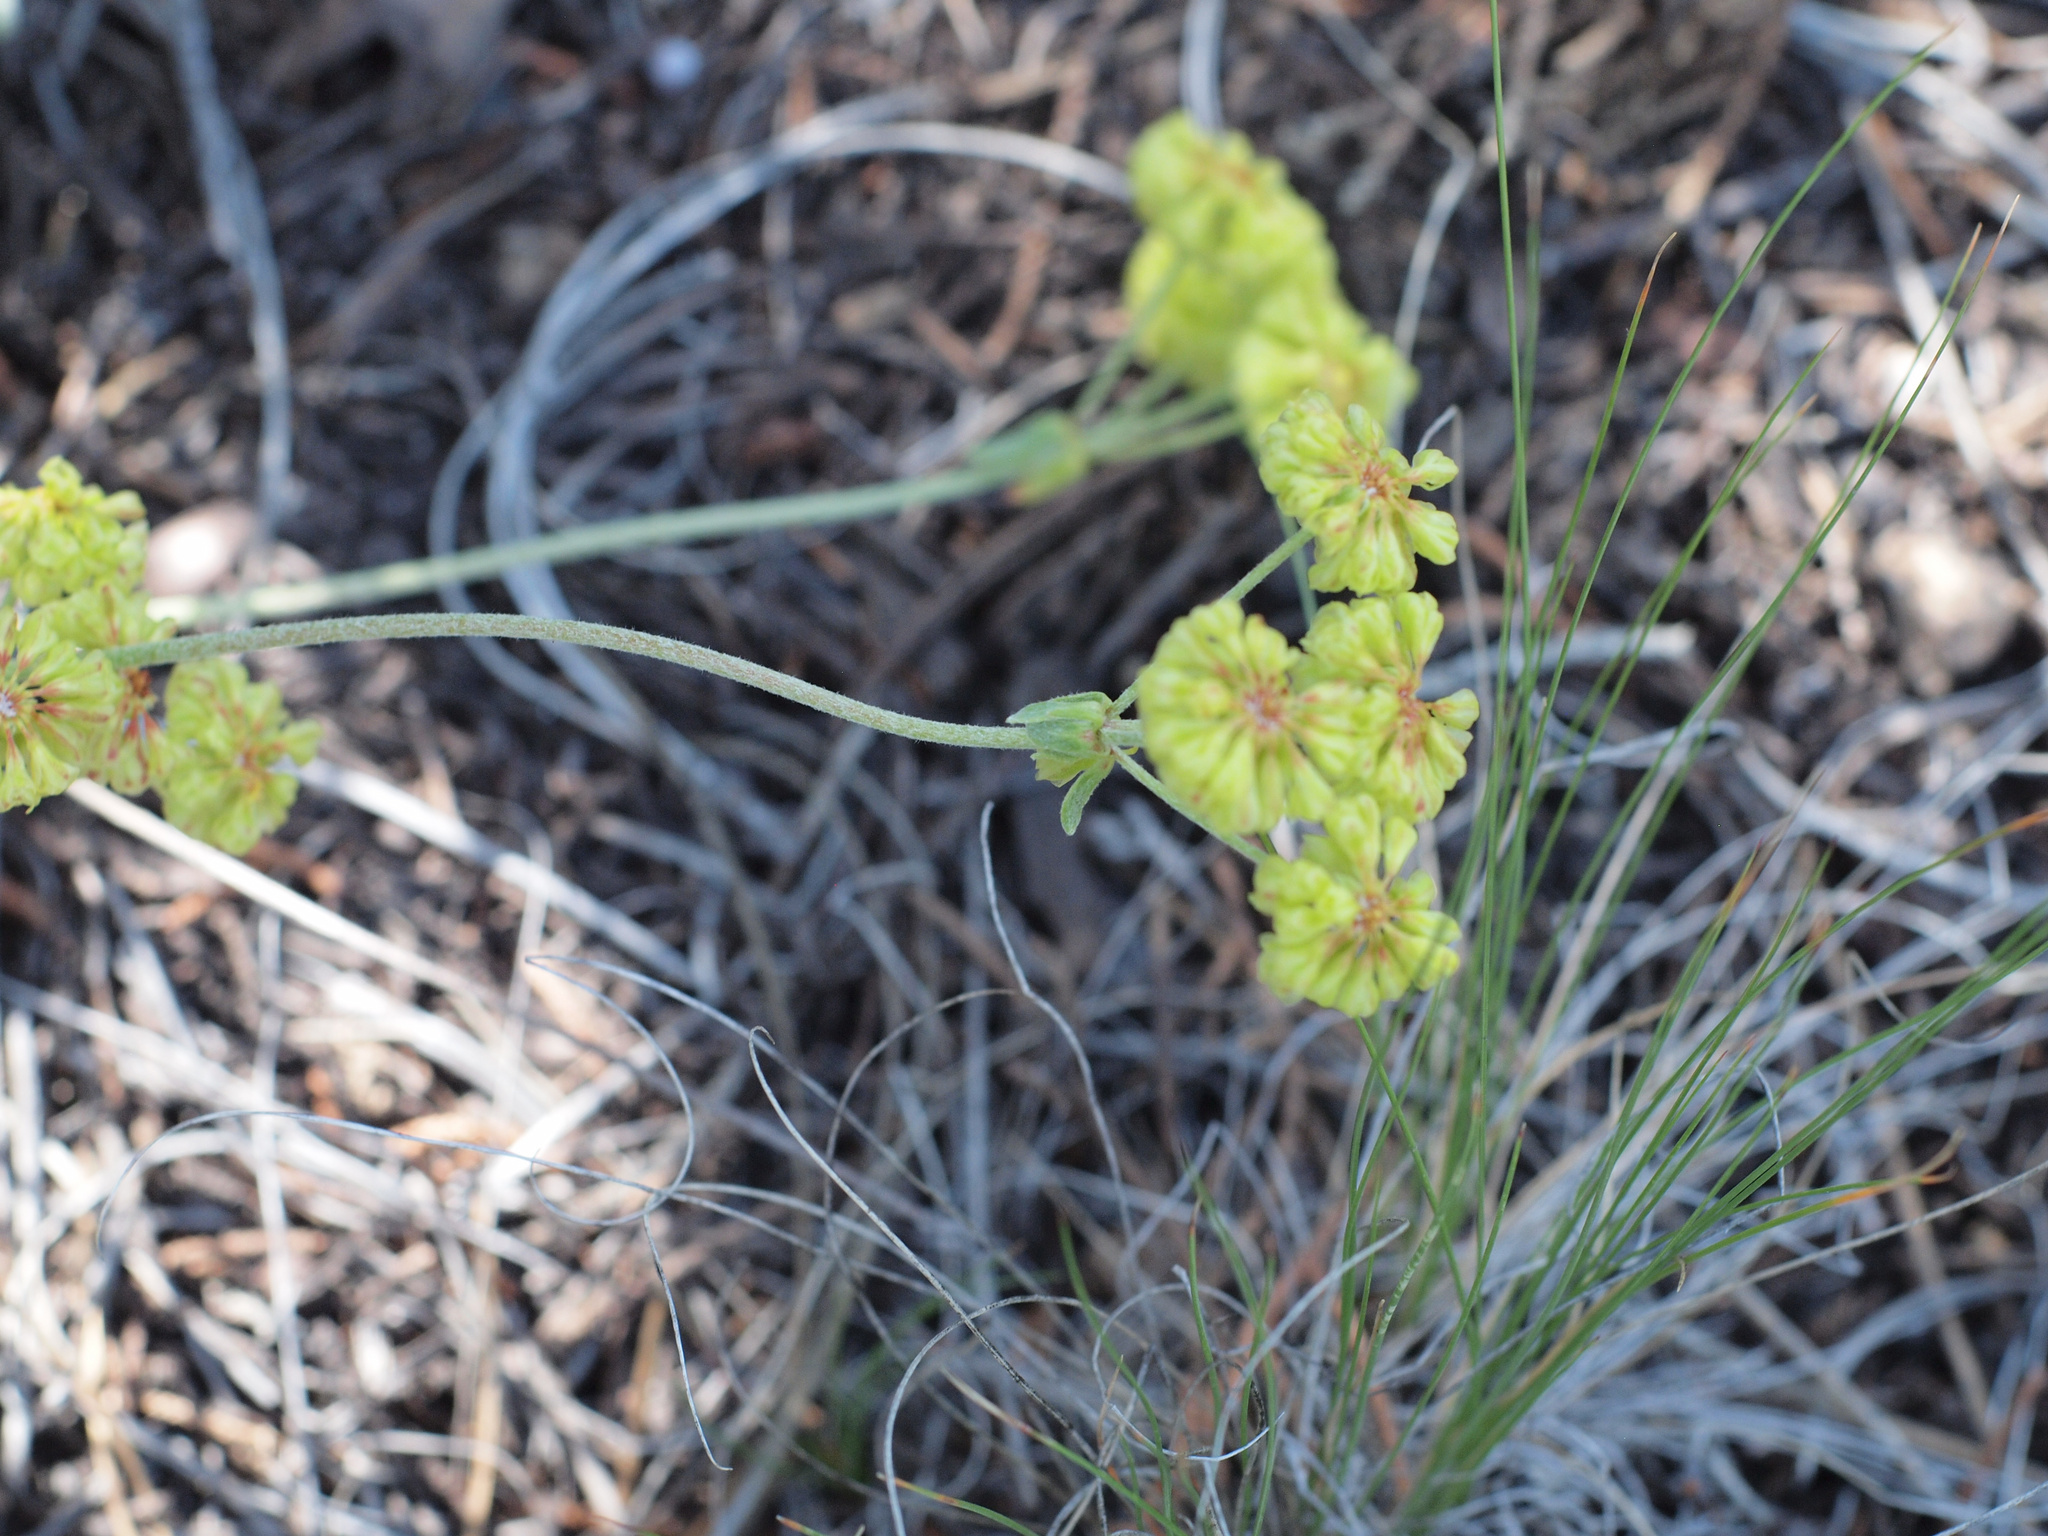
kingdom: Plantae
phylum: Tracheophyta
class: Magnoliopsida
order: Caryophyllales
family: Polygonaceae
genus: Eriogonum
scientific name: Eriogonum umbellatum
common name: Sulfur-buckwheat
